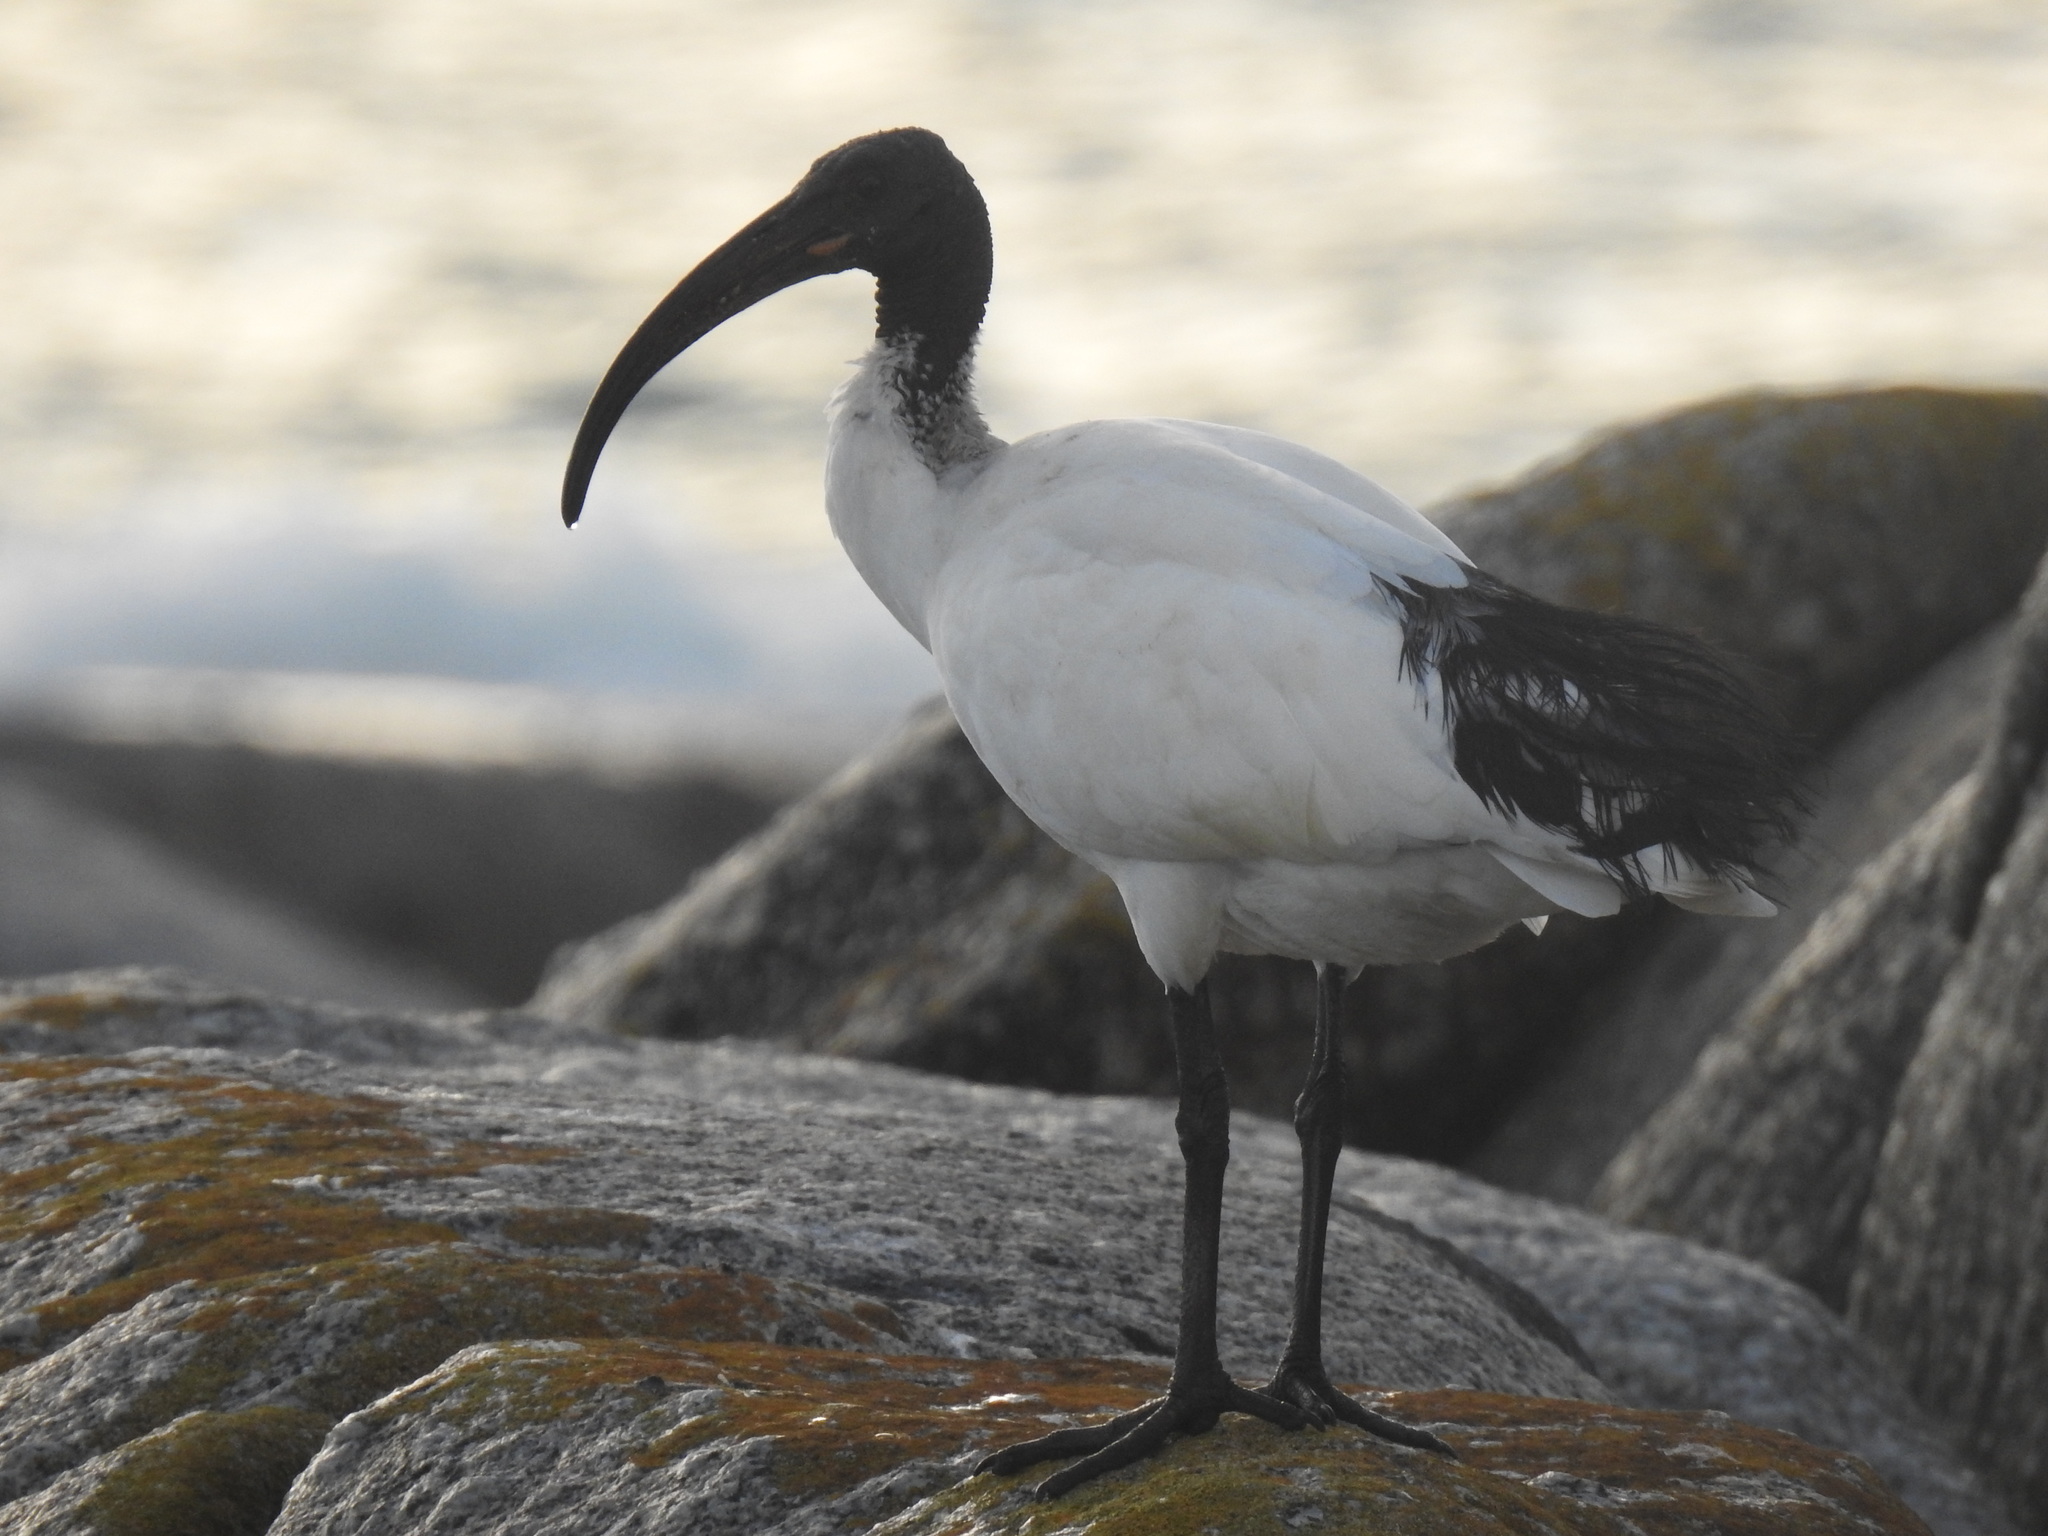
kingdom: Animalia
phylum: Chordata
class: Aves
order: Pelecaniformes
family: Threskiornithidae
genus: Threskiornis
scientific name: Threskiornis aethiopicus
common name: Sacred ibis
